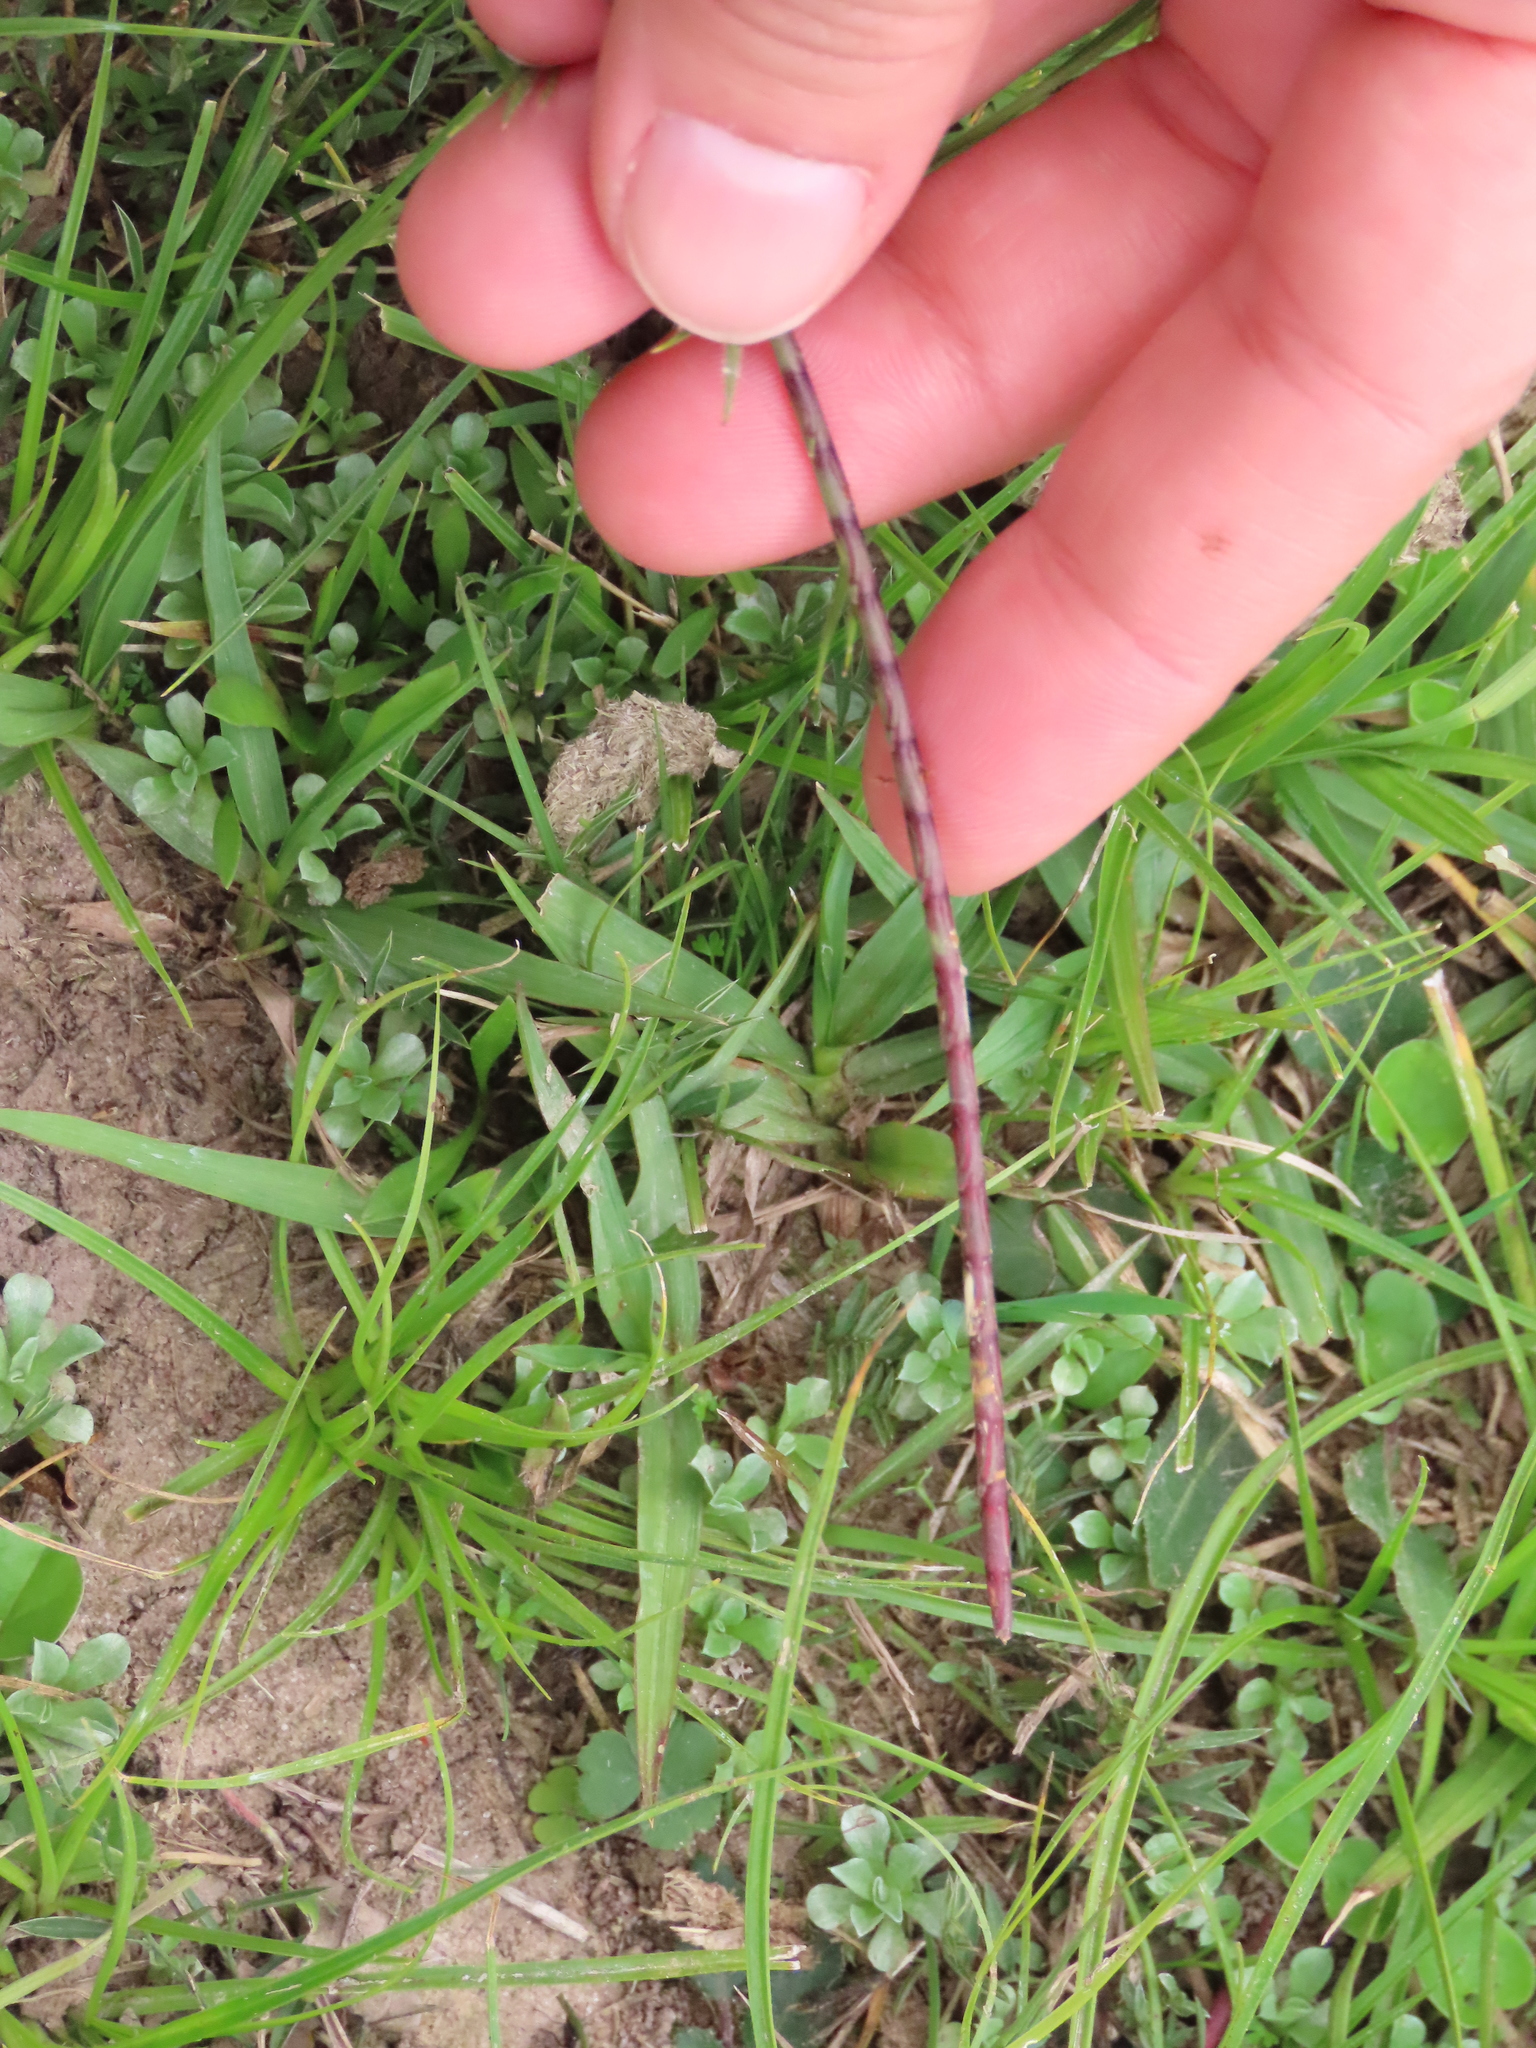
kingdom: Plantae
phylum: Tracheophyta
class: Liliopsida
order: Poales
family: Poaceae
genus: Rottboellia
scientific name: Rottboellia selloana
